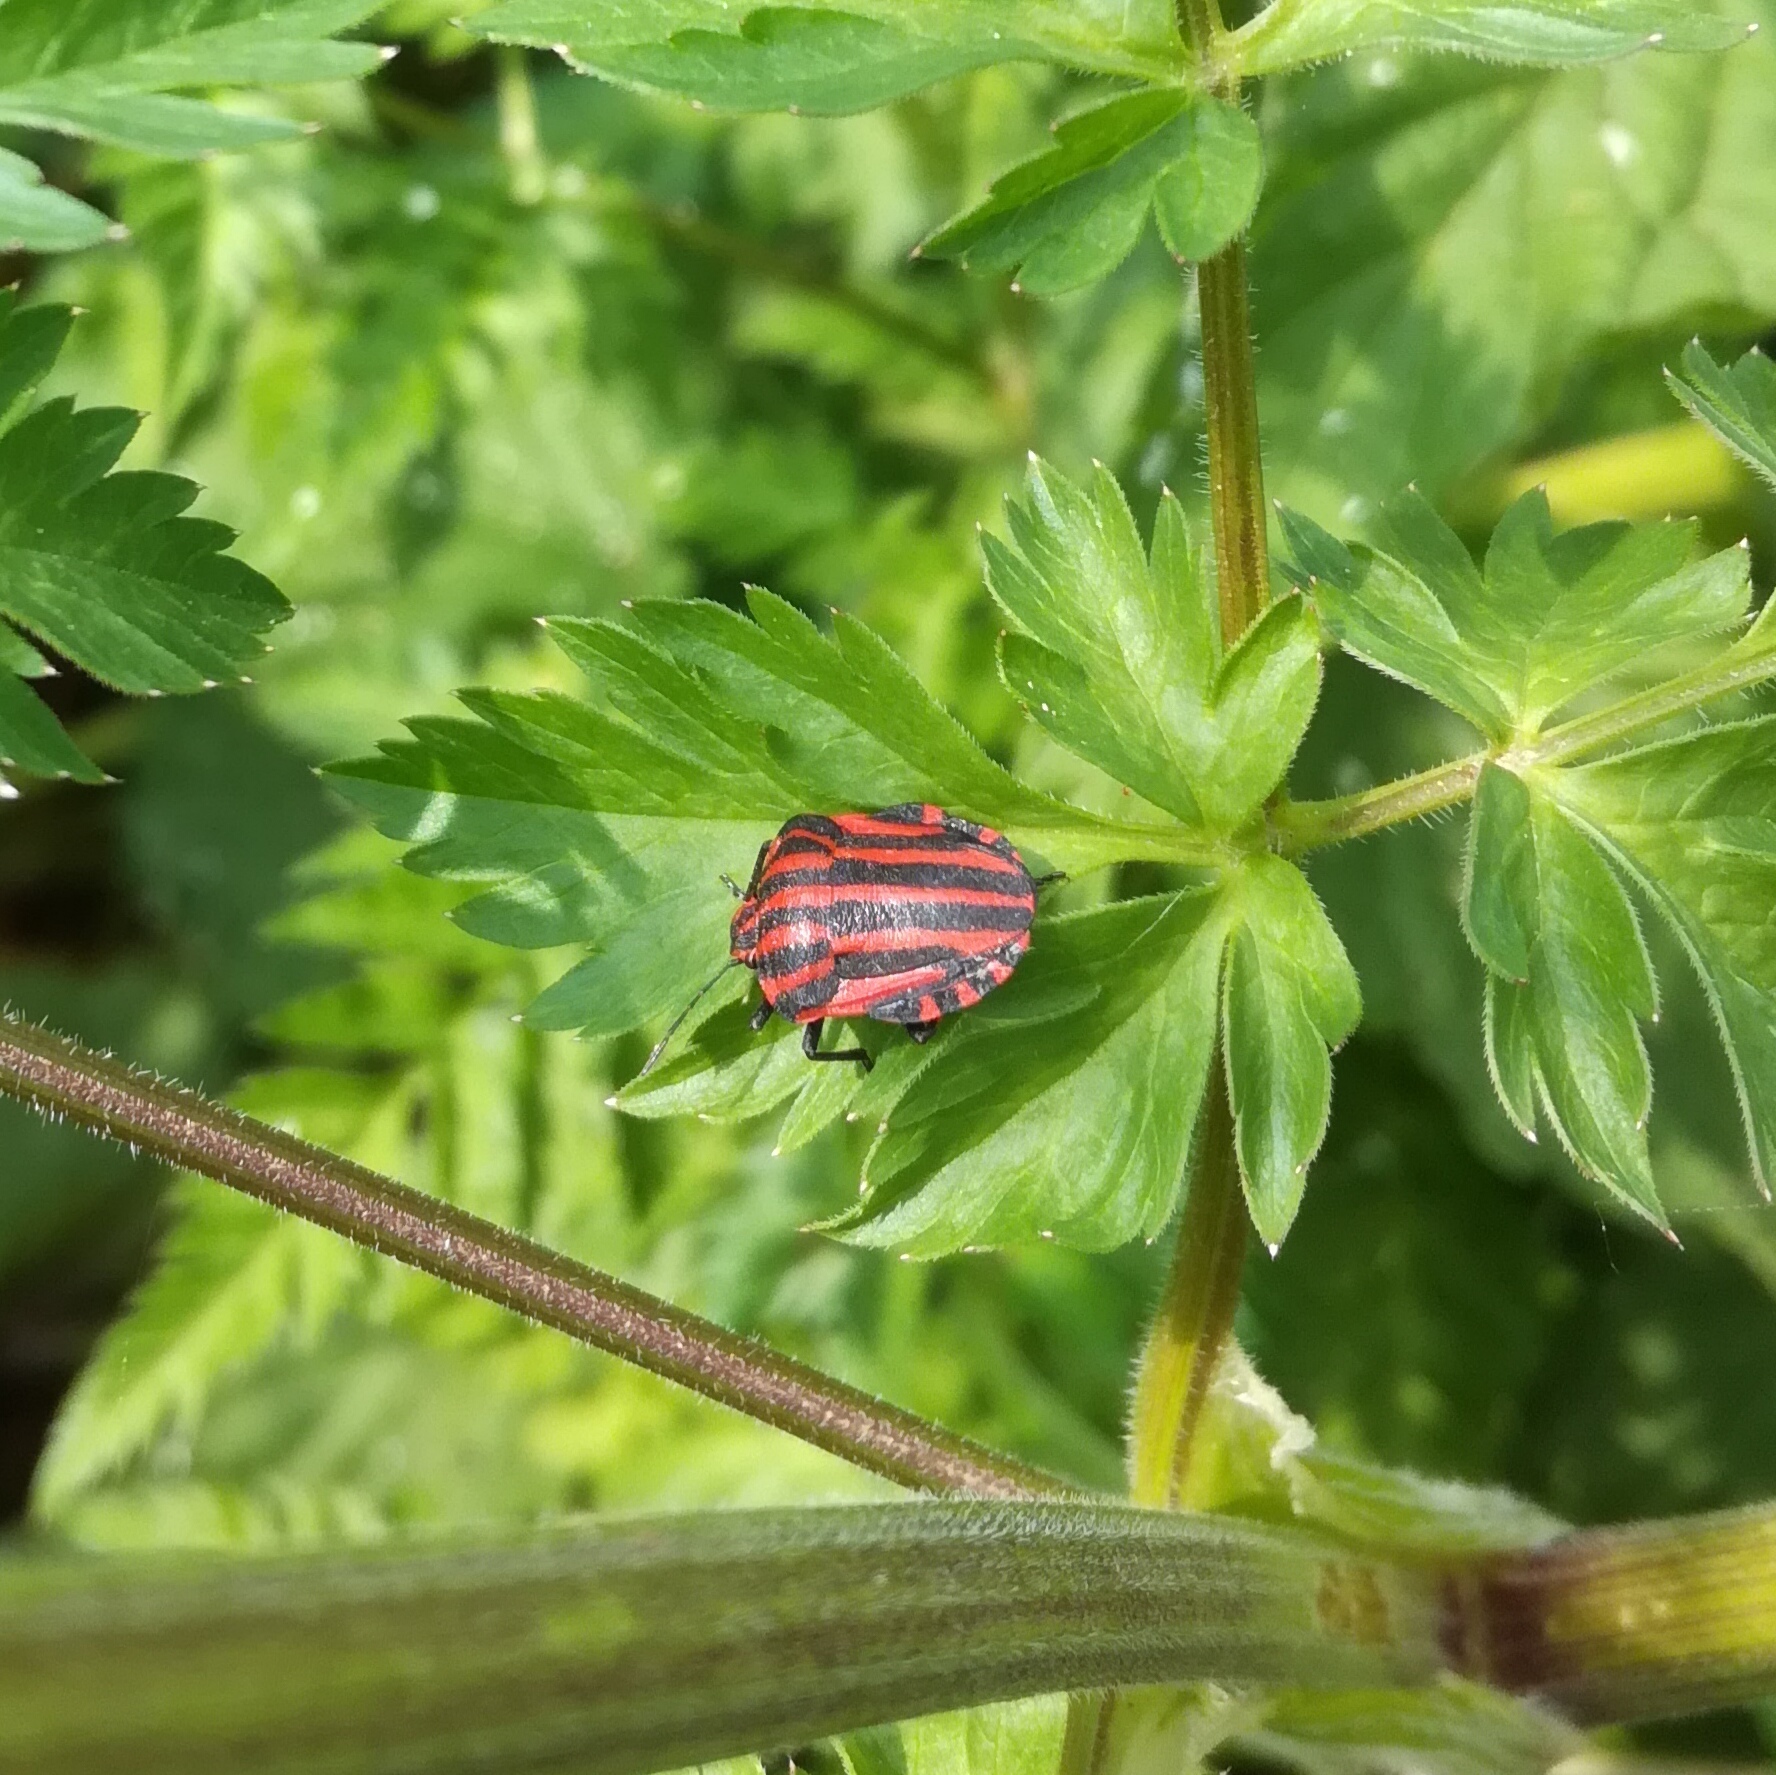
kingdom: Animalia
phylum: Arthropoda
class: Insecta
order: Hemiptera
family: Pentatomidae
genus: Graphosoma
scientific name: Graphosoma italicum
